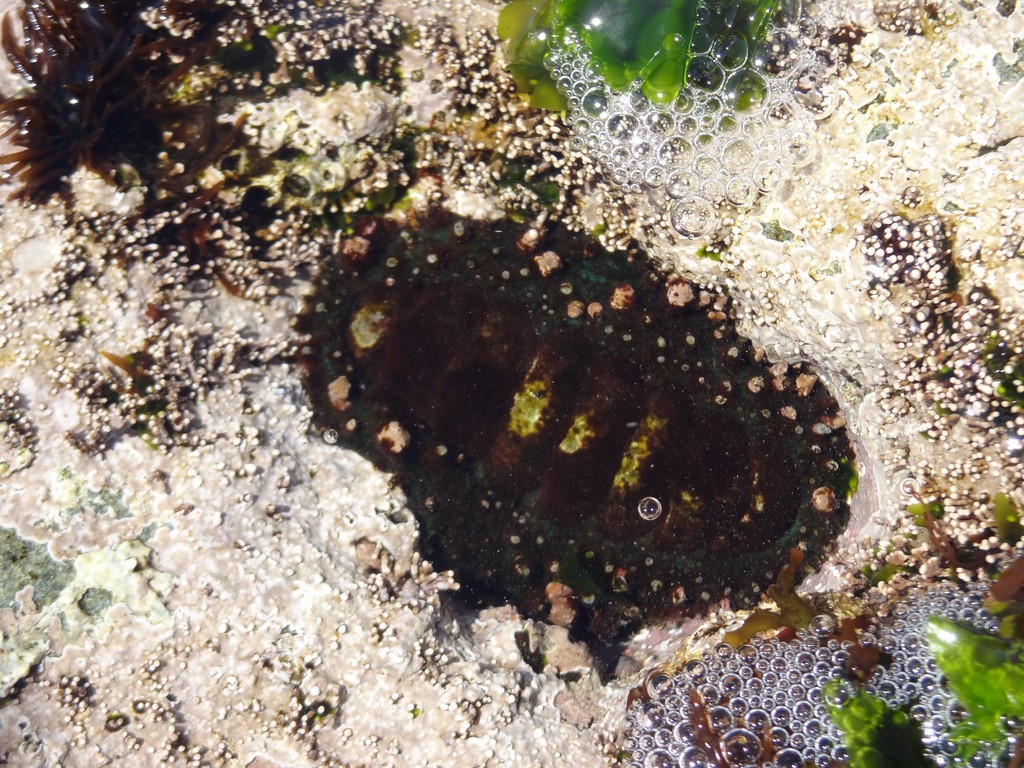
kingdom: Animalia
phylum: Mollusca
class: Polyplacophora
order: Chitonida
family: Chitonidae
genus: Enoplochiton
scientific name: Enoplochiton echinatus
